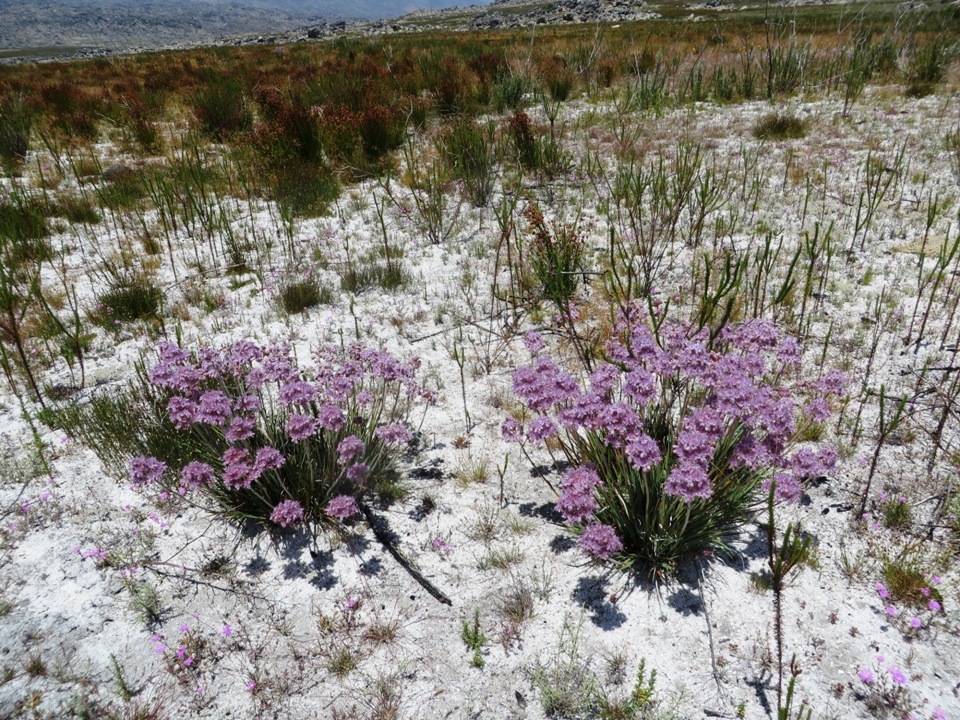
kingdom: Plantae
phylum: Tracheophyta
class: Liliopsida
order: Commelinales
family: Haemodoraceae
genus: Dilatris
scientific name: Dilatris ixioides
